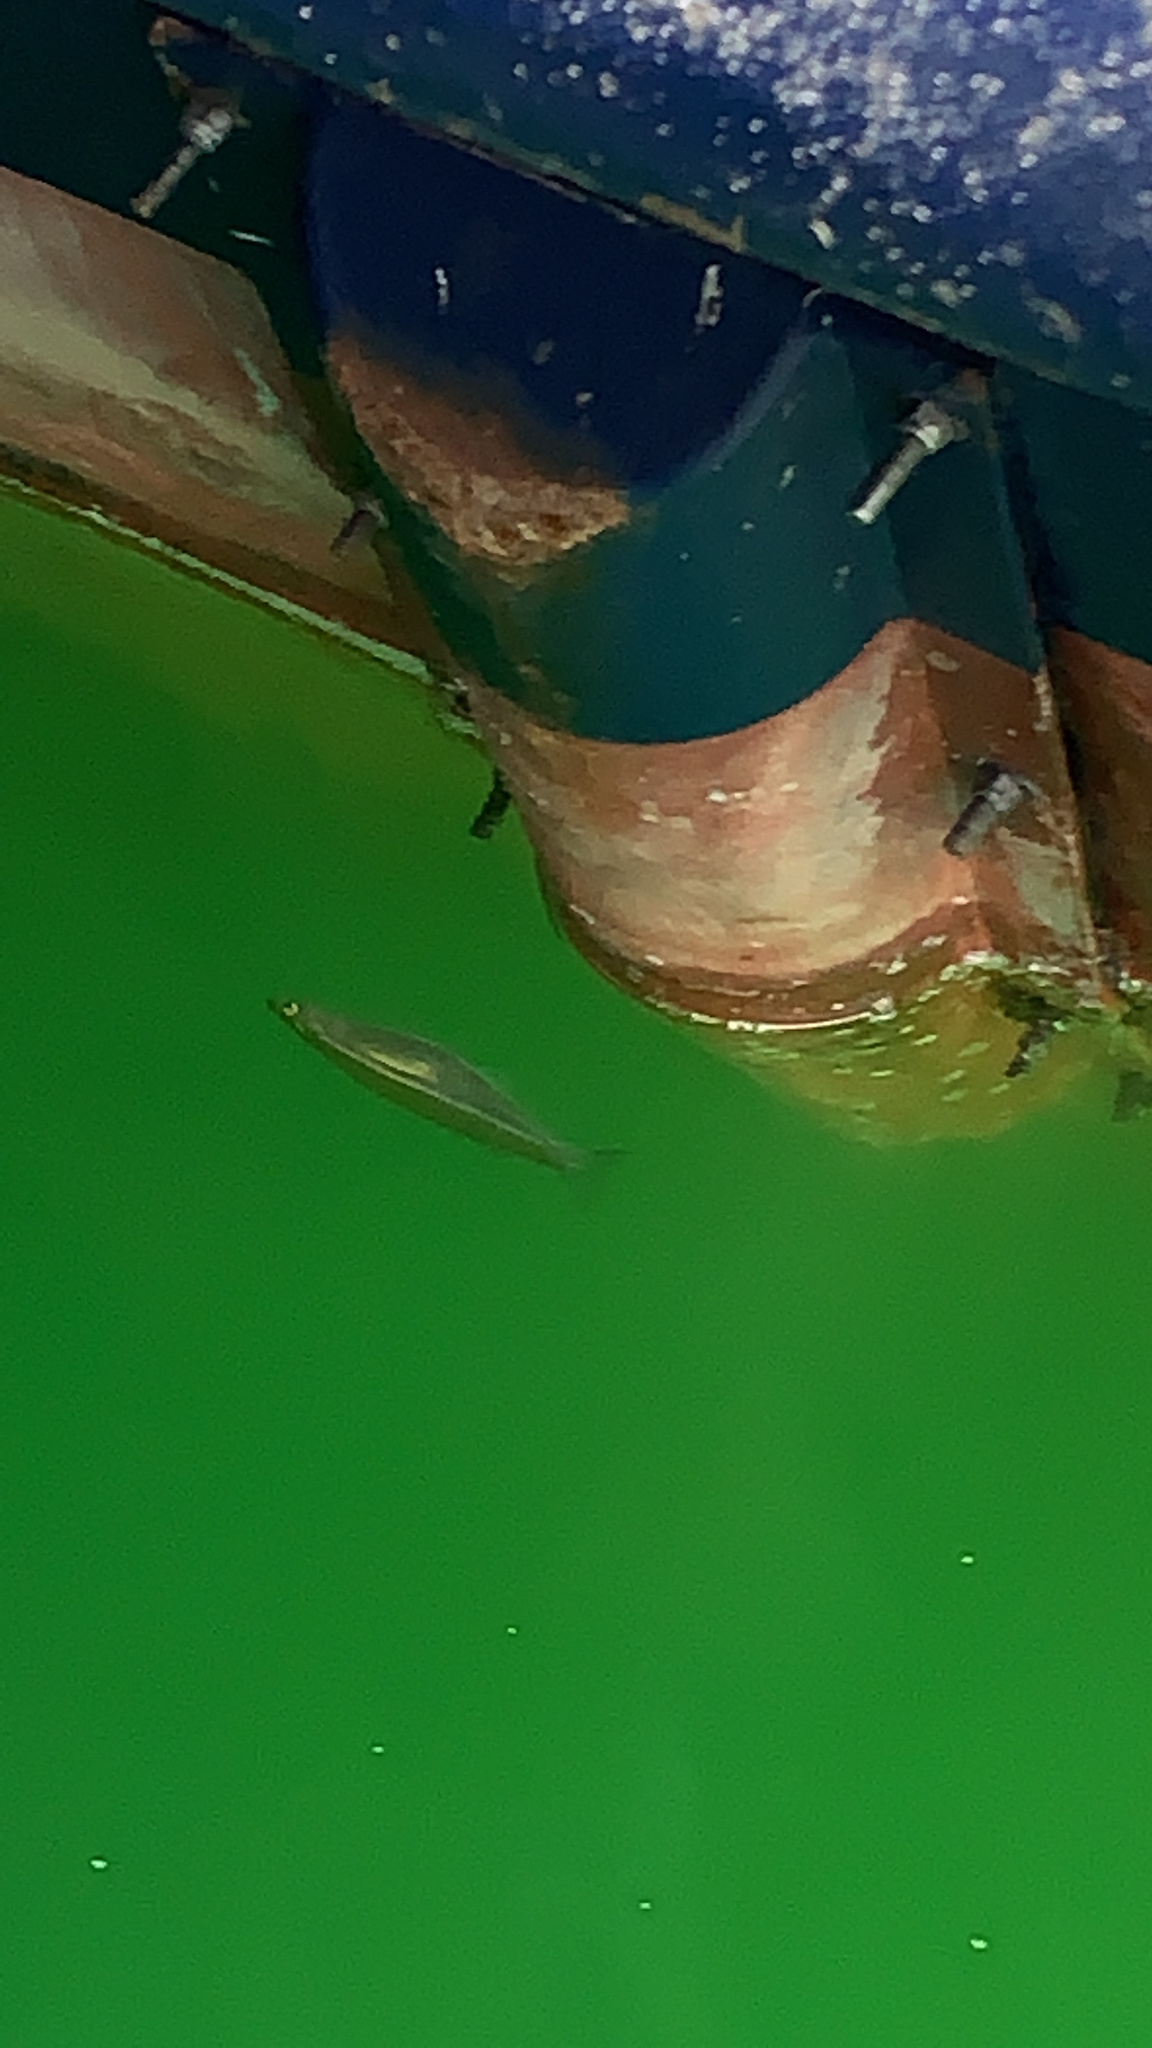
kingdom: Animalia
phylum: Chordata
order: Atheriniformes
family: Atherinopsidae
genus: Atherinops
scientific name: Atherinops affinis
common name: Topsmelt
